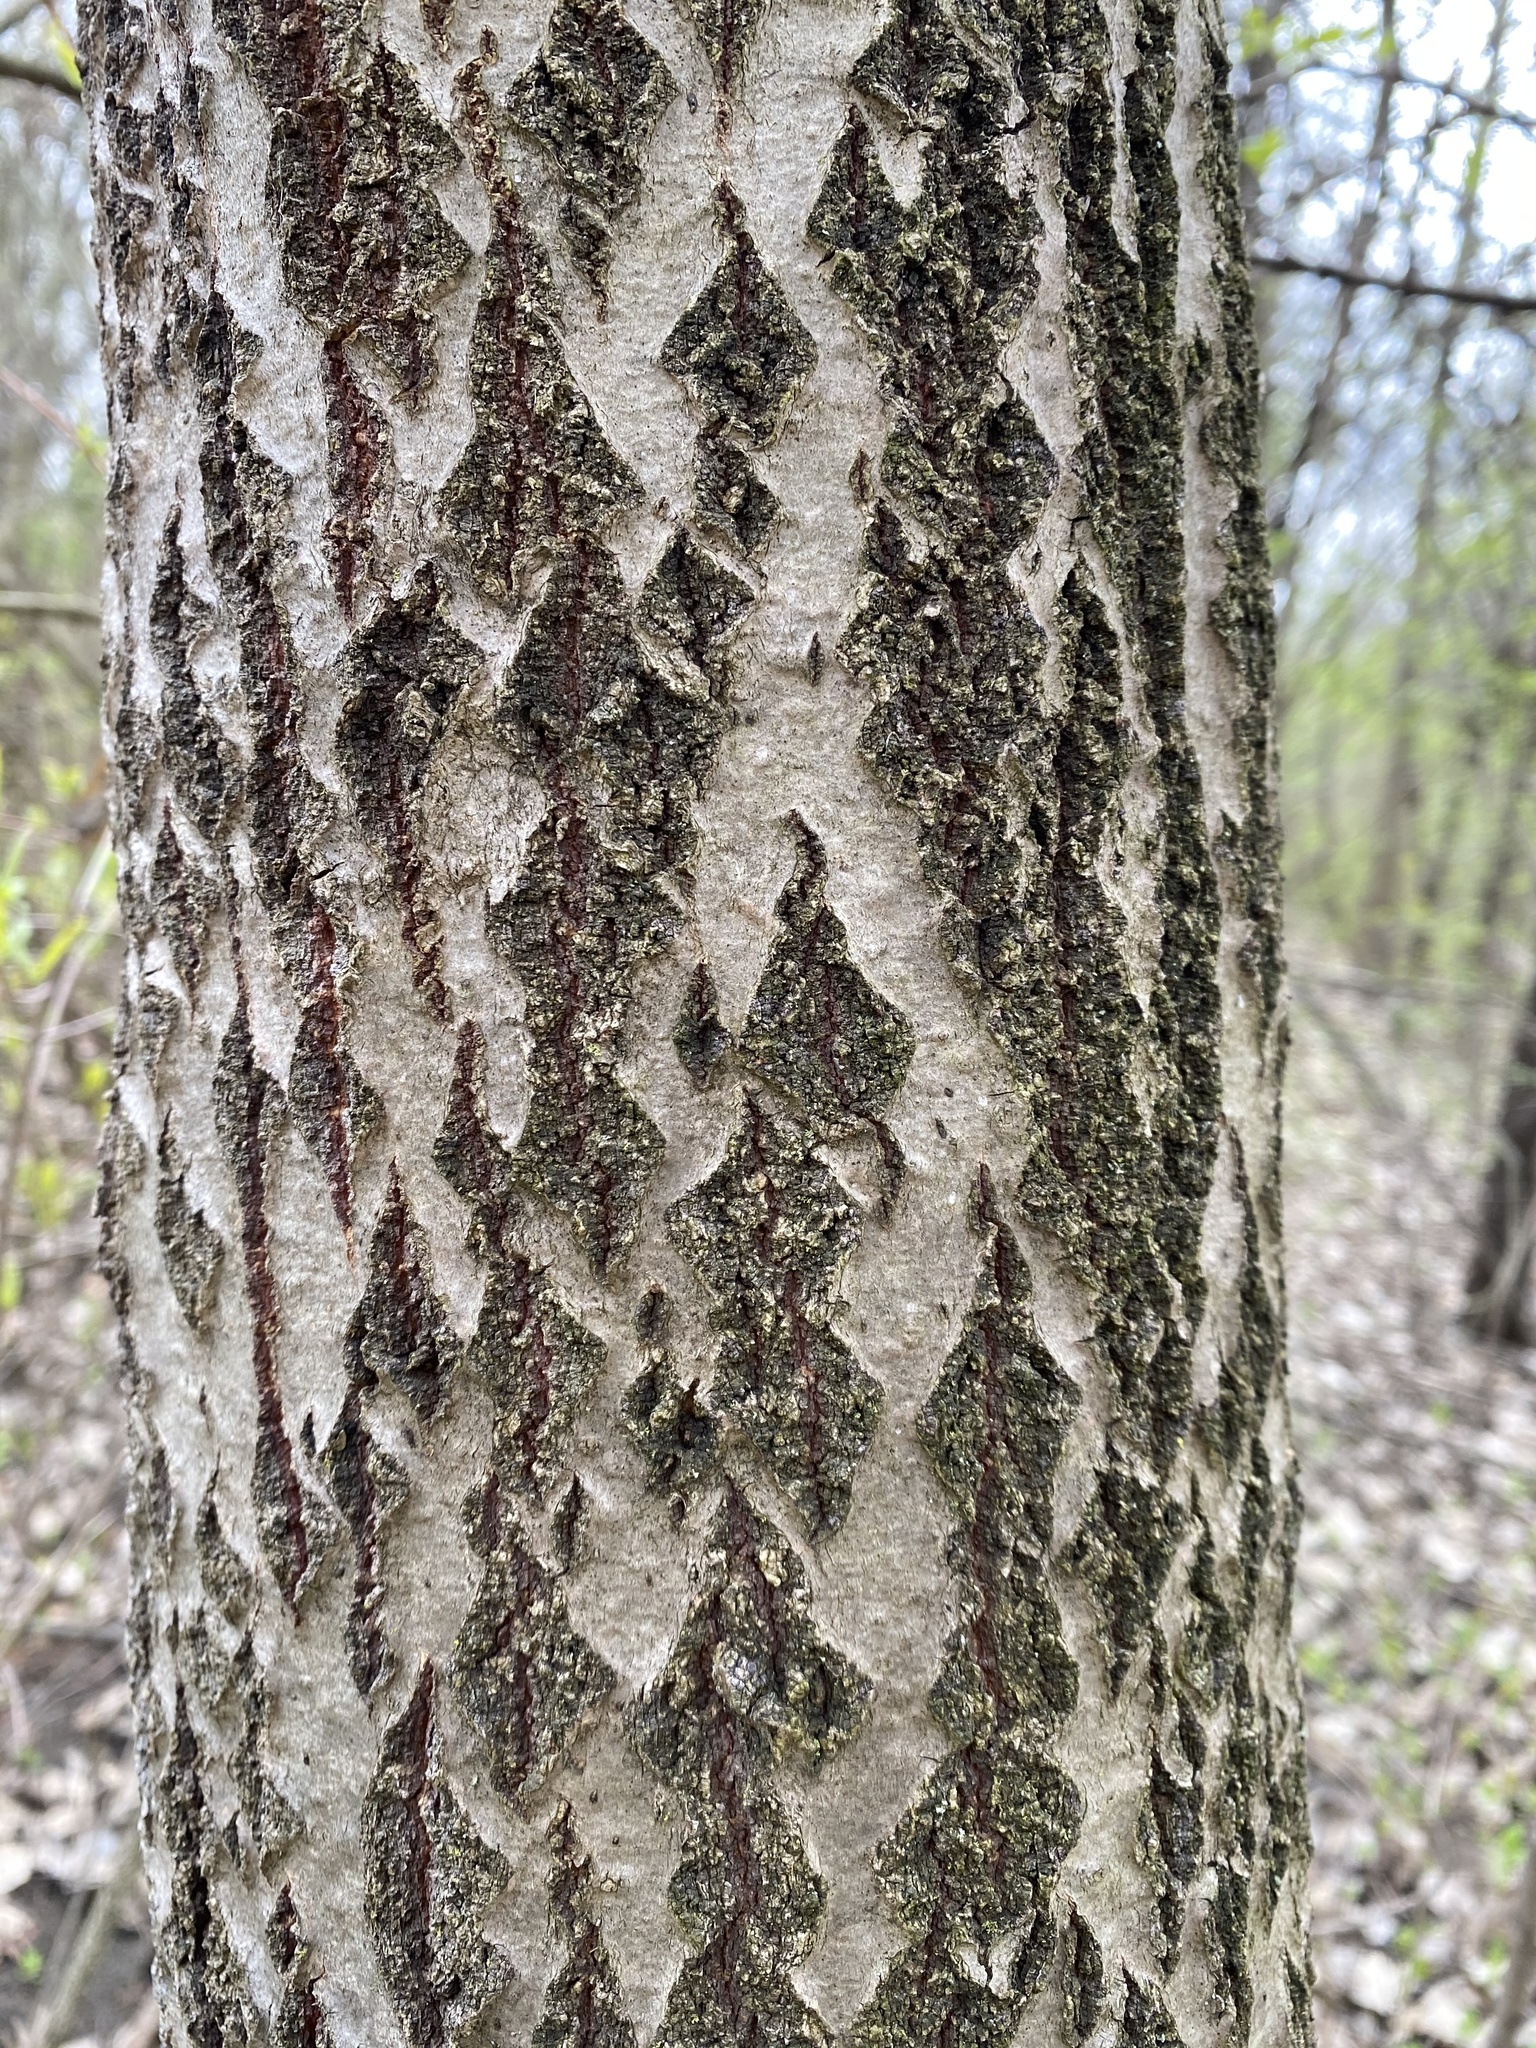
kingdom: Plantae
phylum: Tracheophyta
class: Magnoliopsida
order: Malpighiales
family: Salicaceae
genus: Populus
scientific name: Populus grandidentata
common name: Bigtooth aspen
